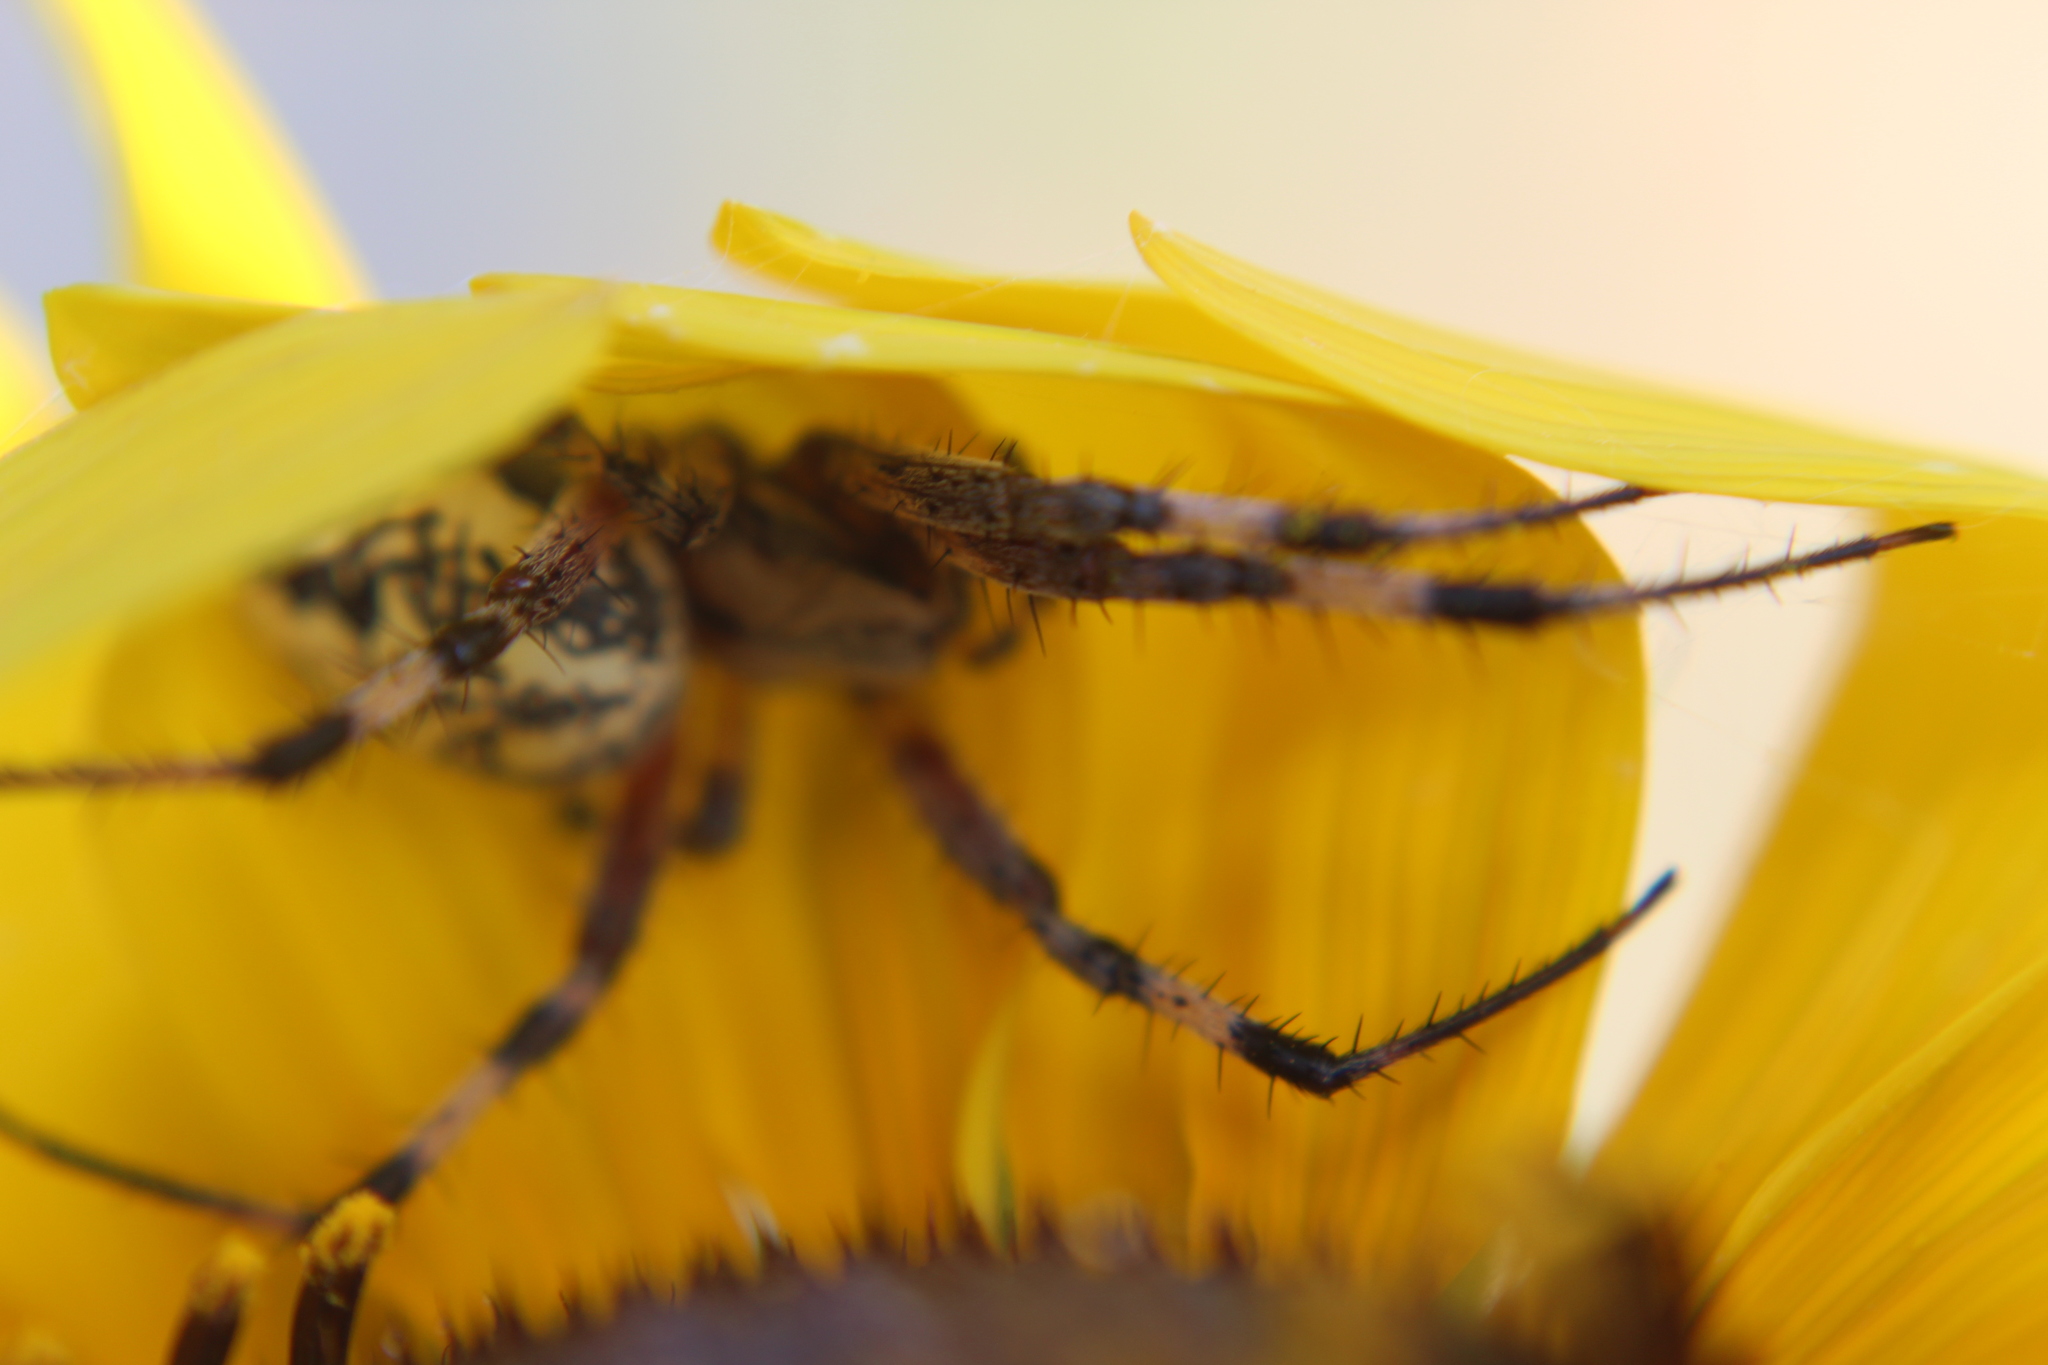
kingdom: Animalia
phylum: Arthropoda
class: Arachnida
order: Araneae
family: Araneidae
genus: Neoscona
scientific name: Neoscona oaxacensis
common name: Orb weavers
